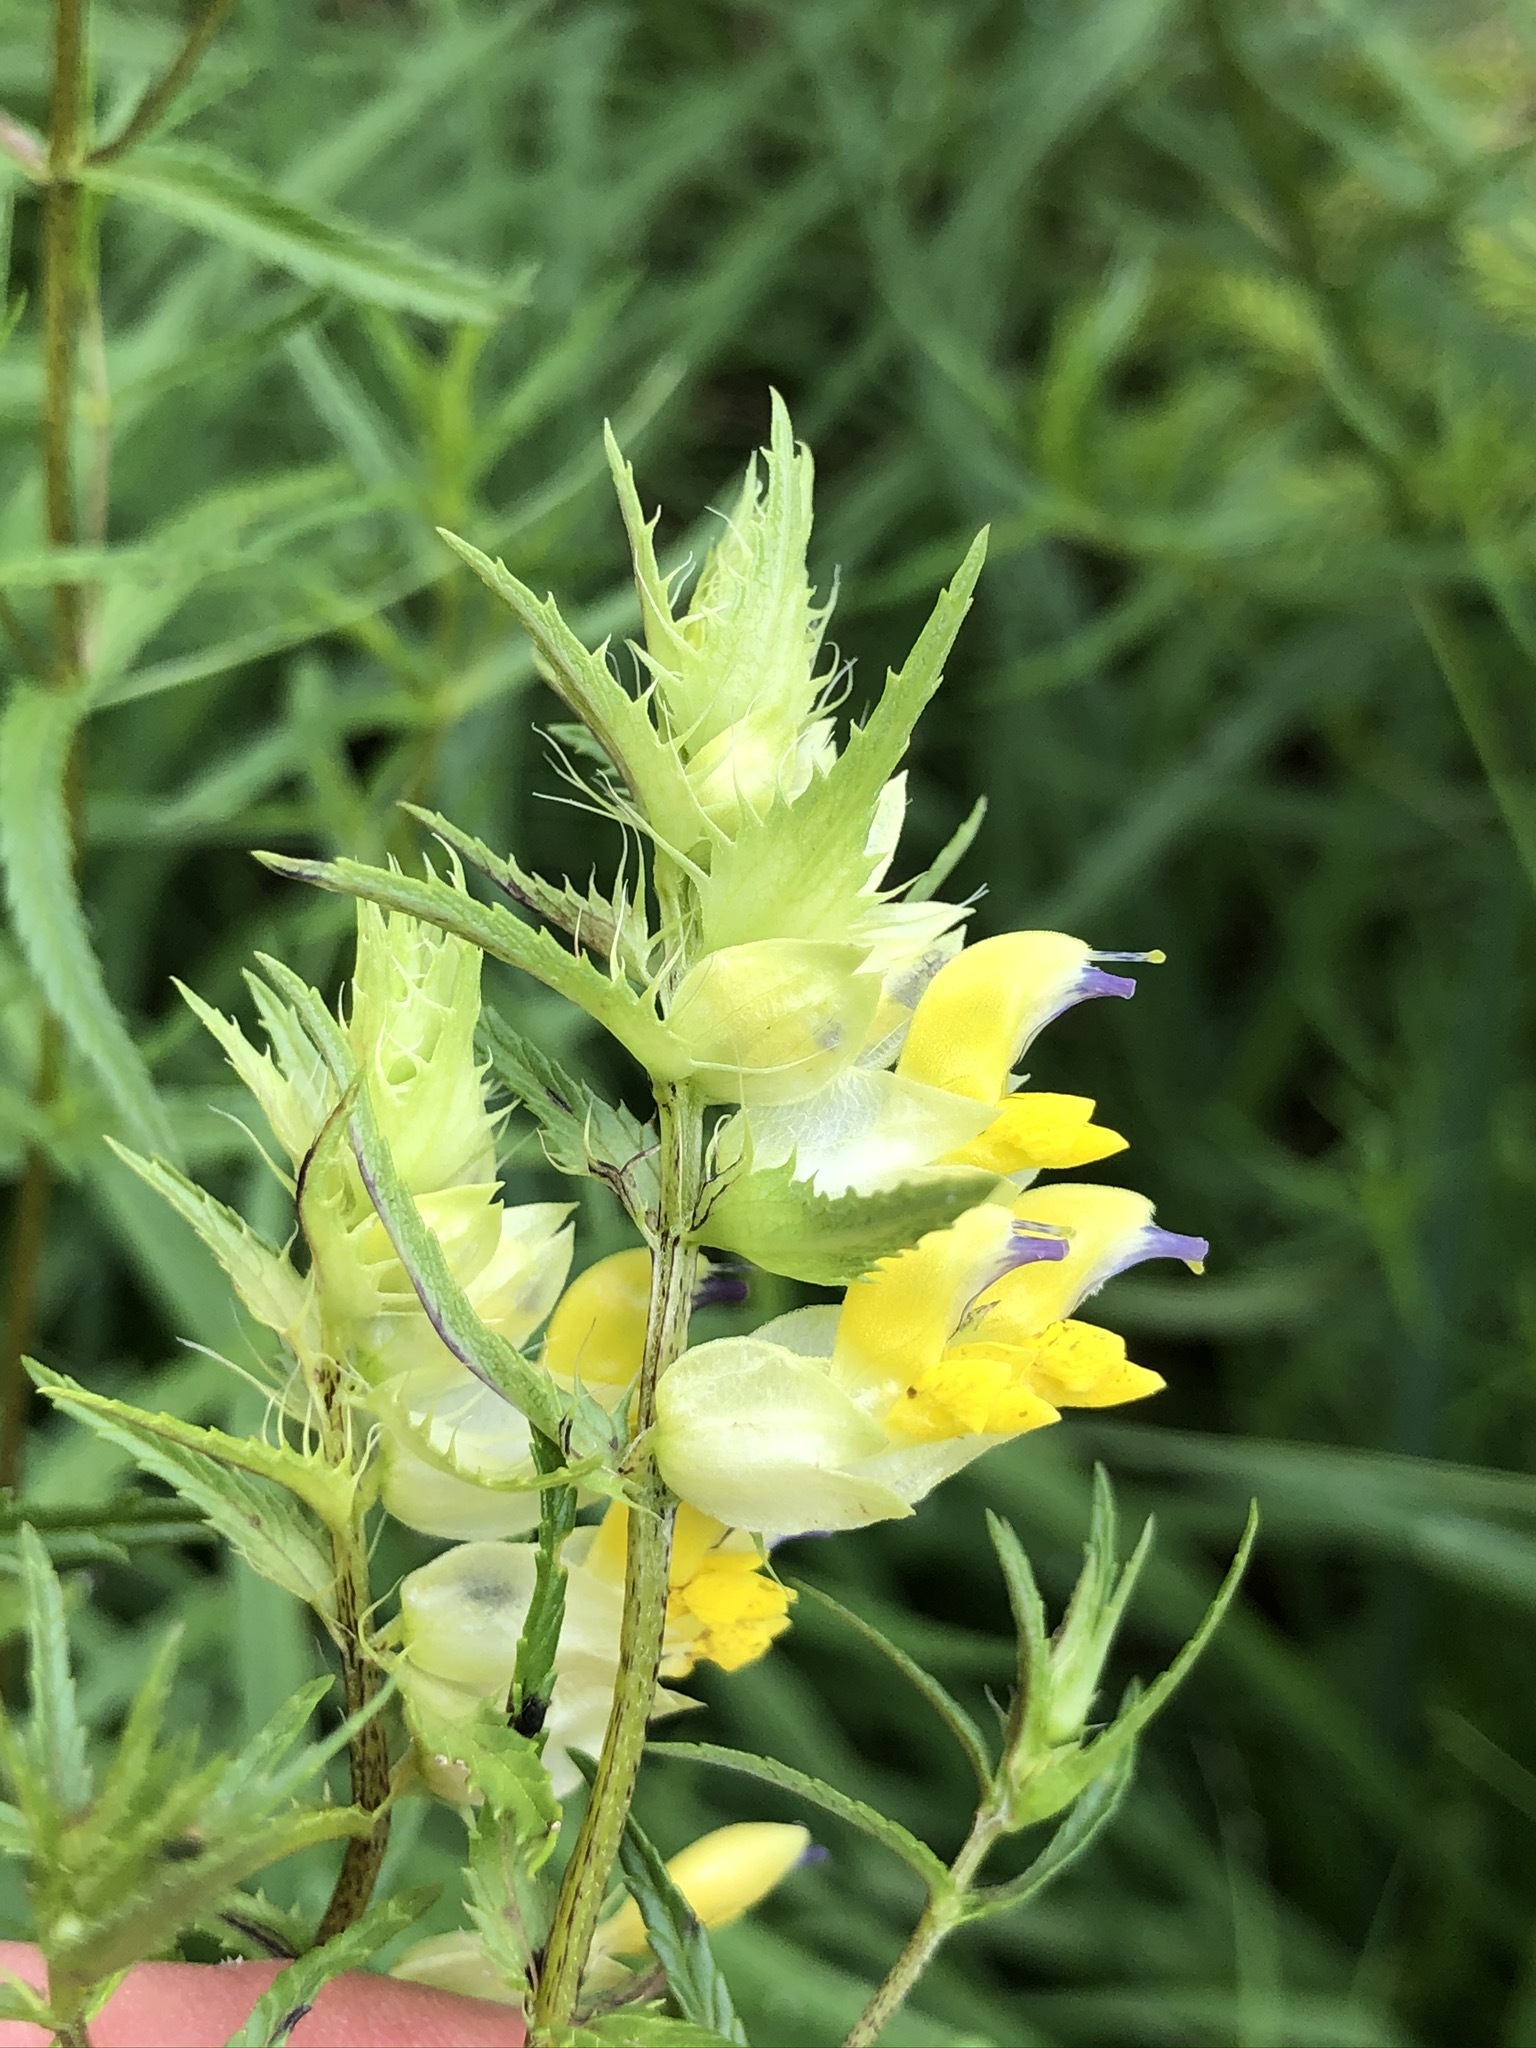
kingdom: Plantae
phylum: Tracheophyta
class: Magnoliopsida
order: Lamiales
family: Orobanchaceae
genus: Rhinanthus
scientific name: Rhinanthus glacialis
